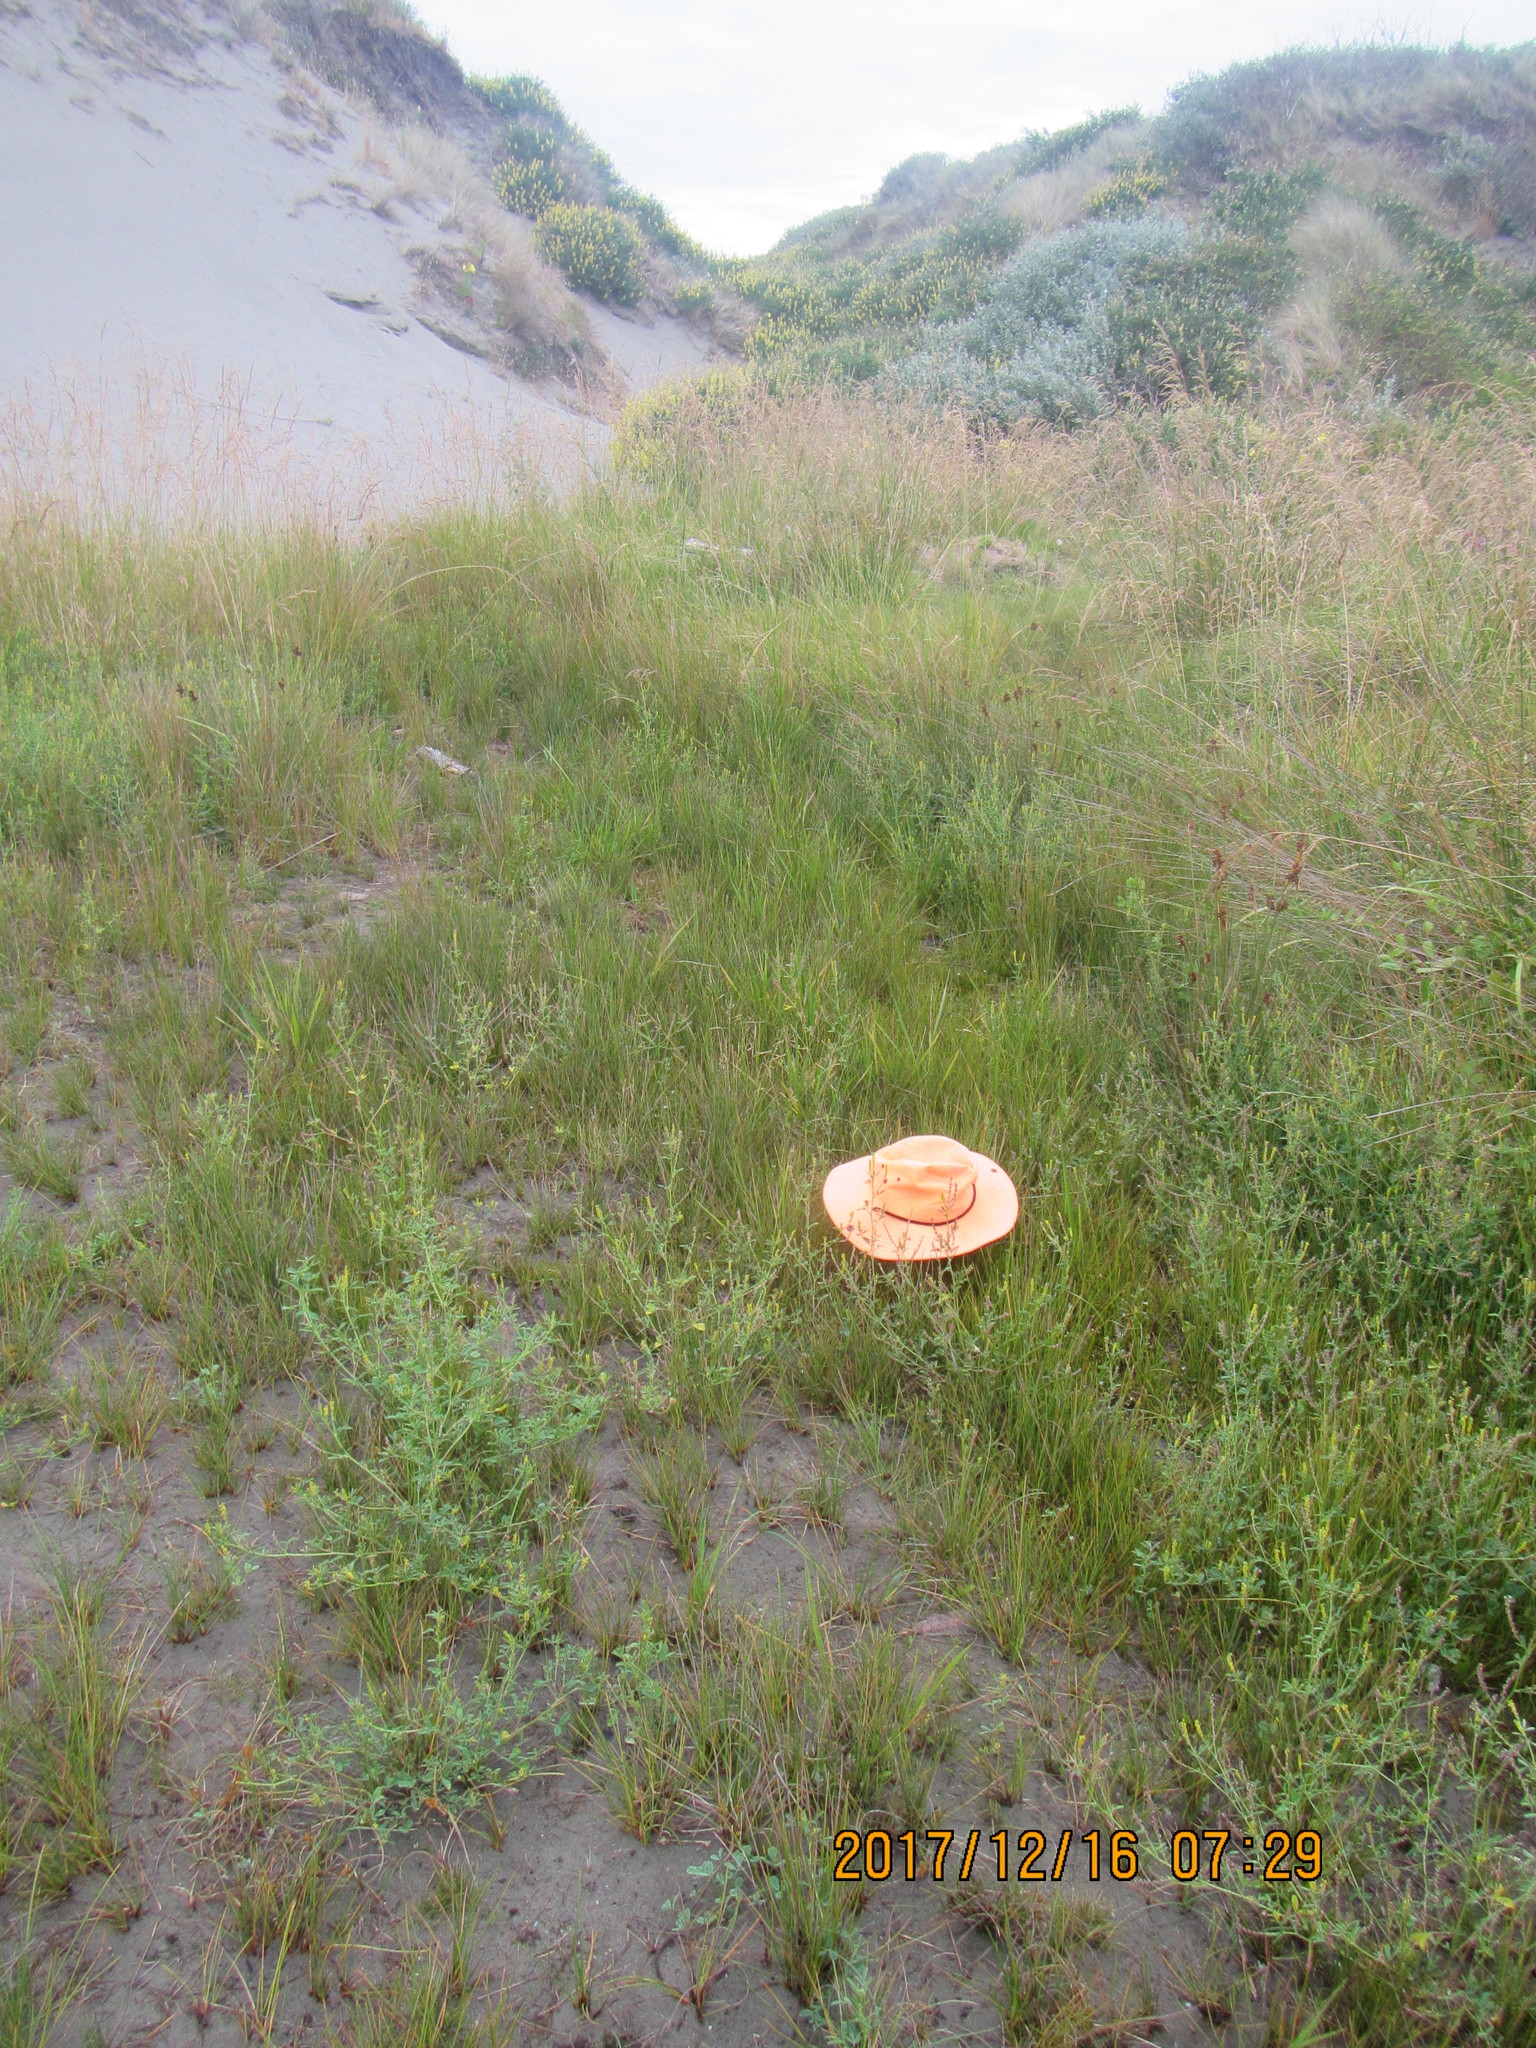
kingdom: Plantae
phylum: Tracheophyta
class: Magnoliopsida
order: Asterales
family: Goodeniaceae
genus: Goodenia
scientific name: Goodenia radicans
